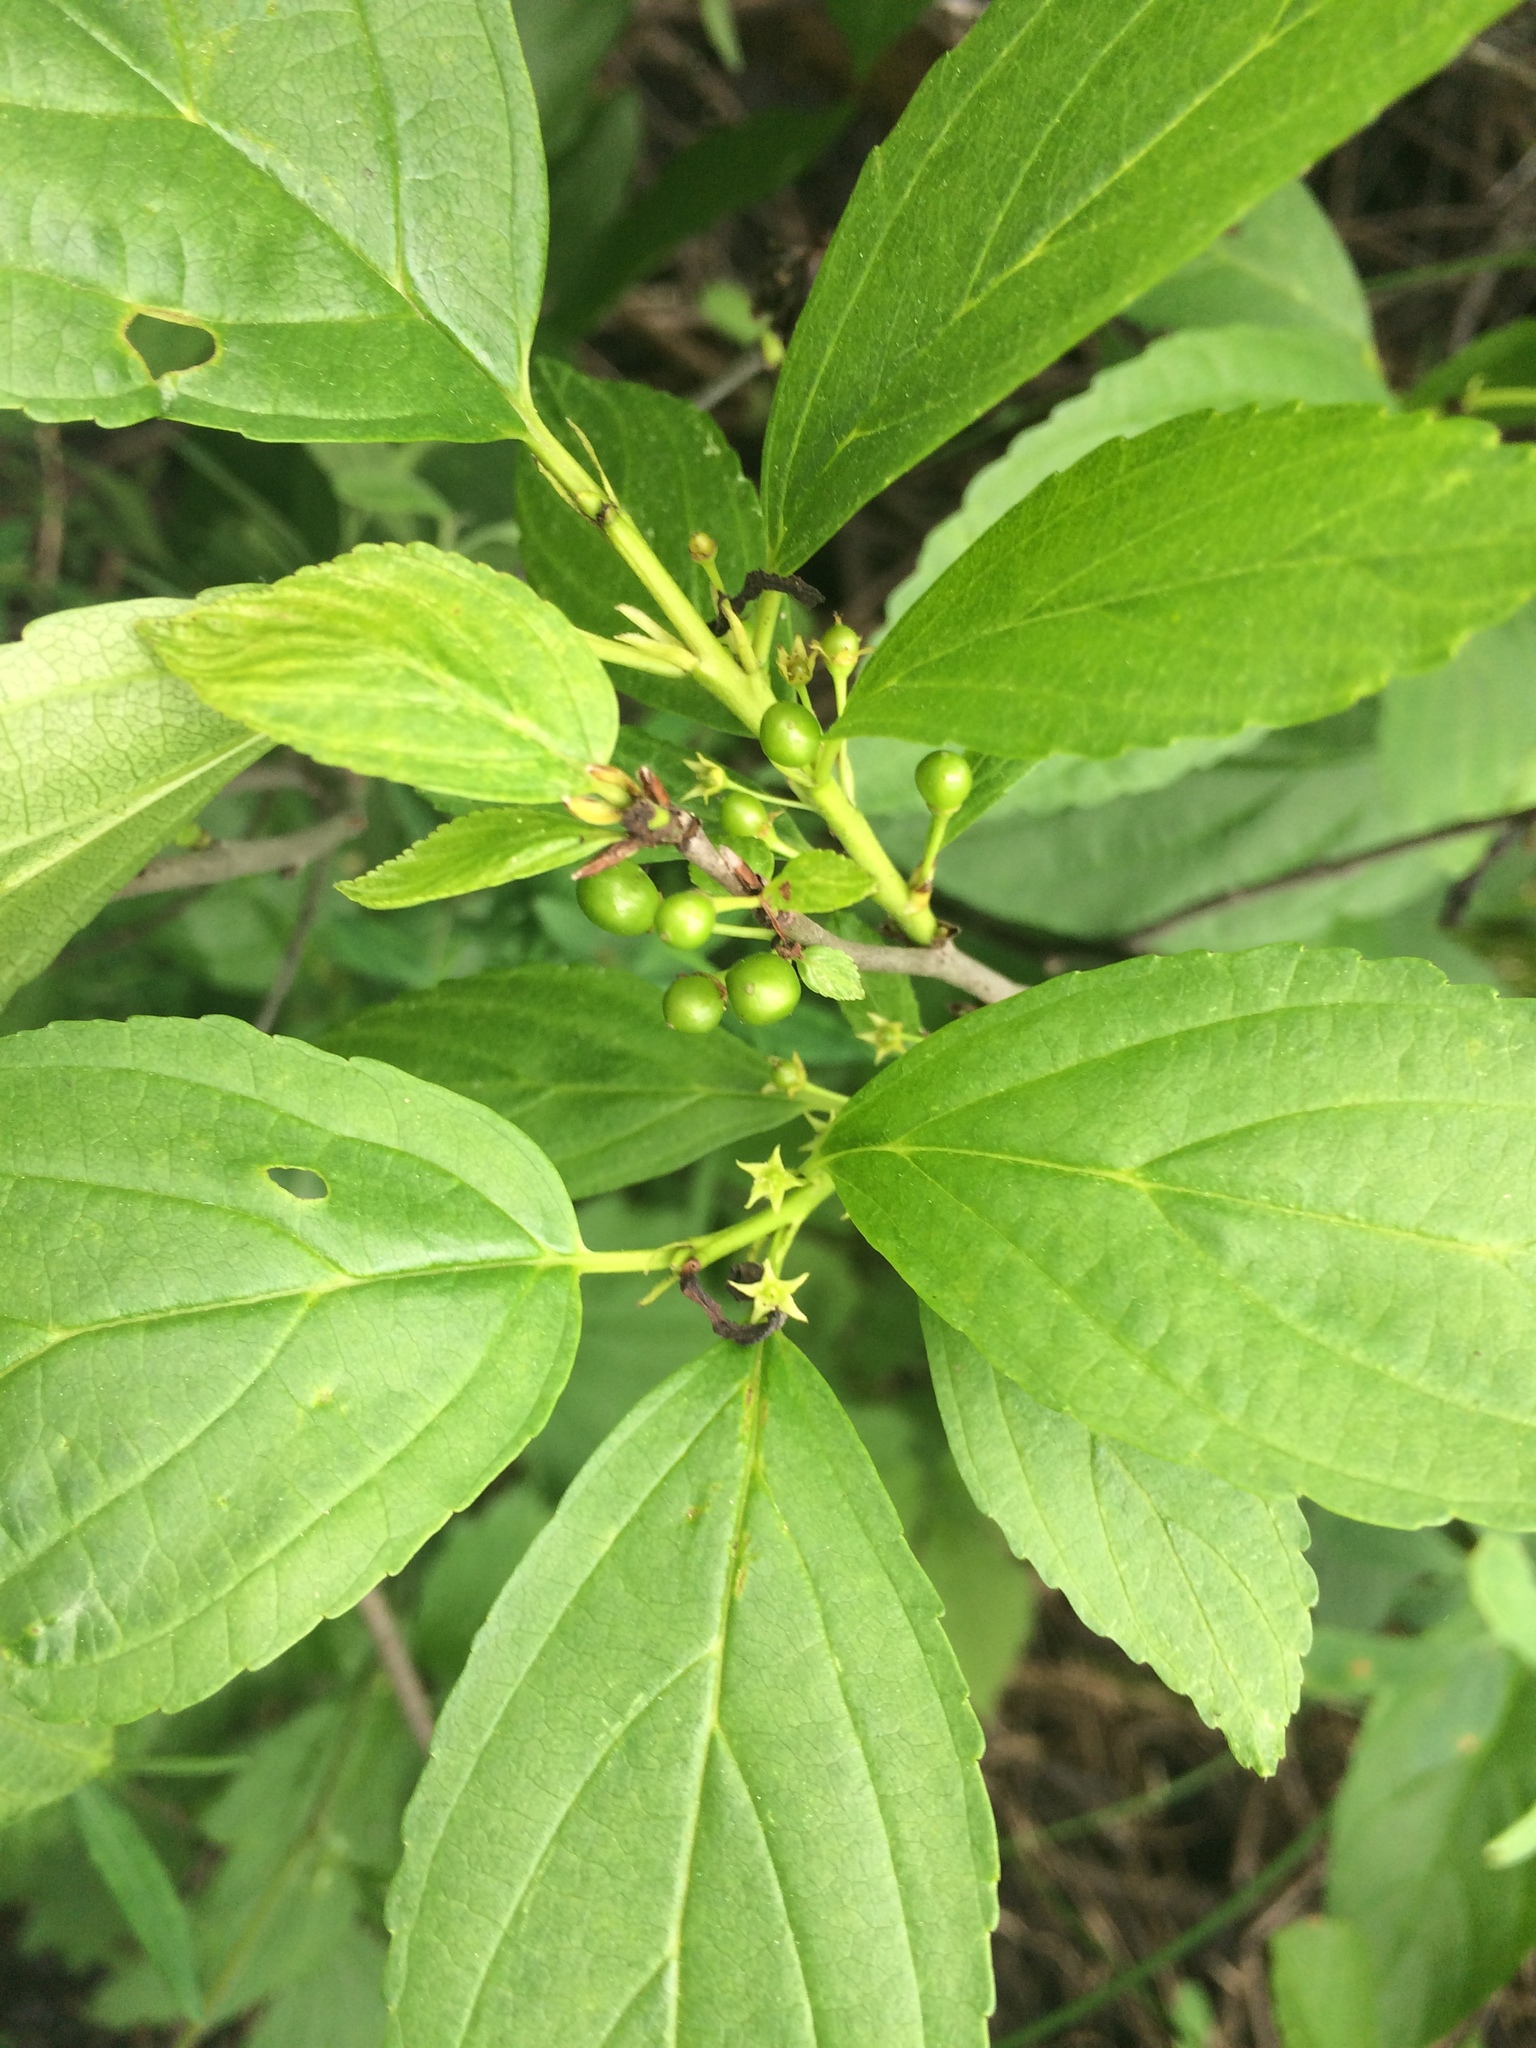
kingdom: Plantae
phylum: Tracheophyta
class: Magnoliopsida
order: Rosales
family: Rhamnaceae
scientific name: Rhamnaceae
